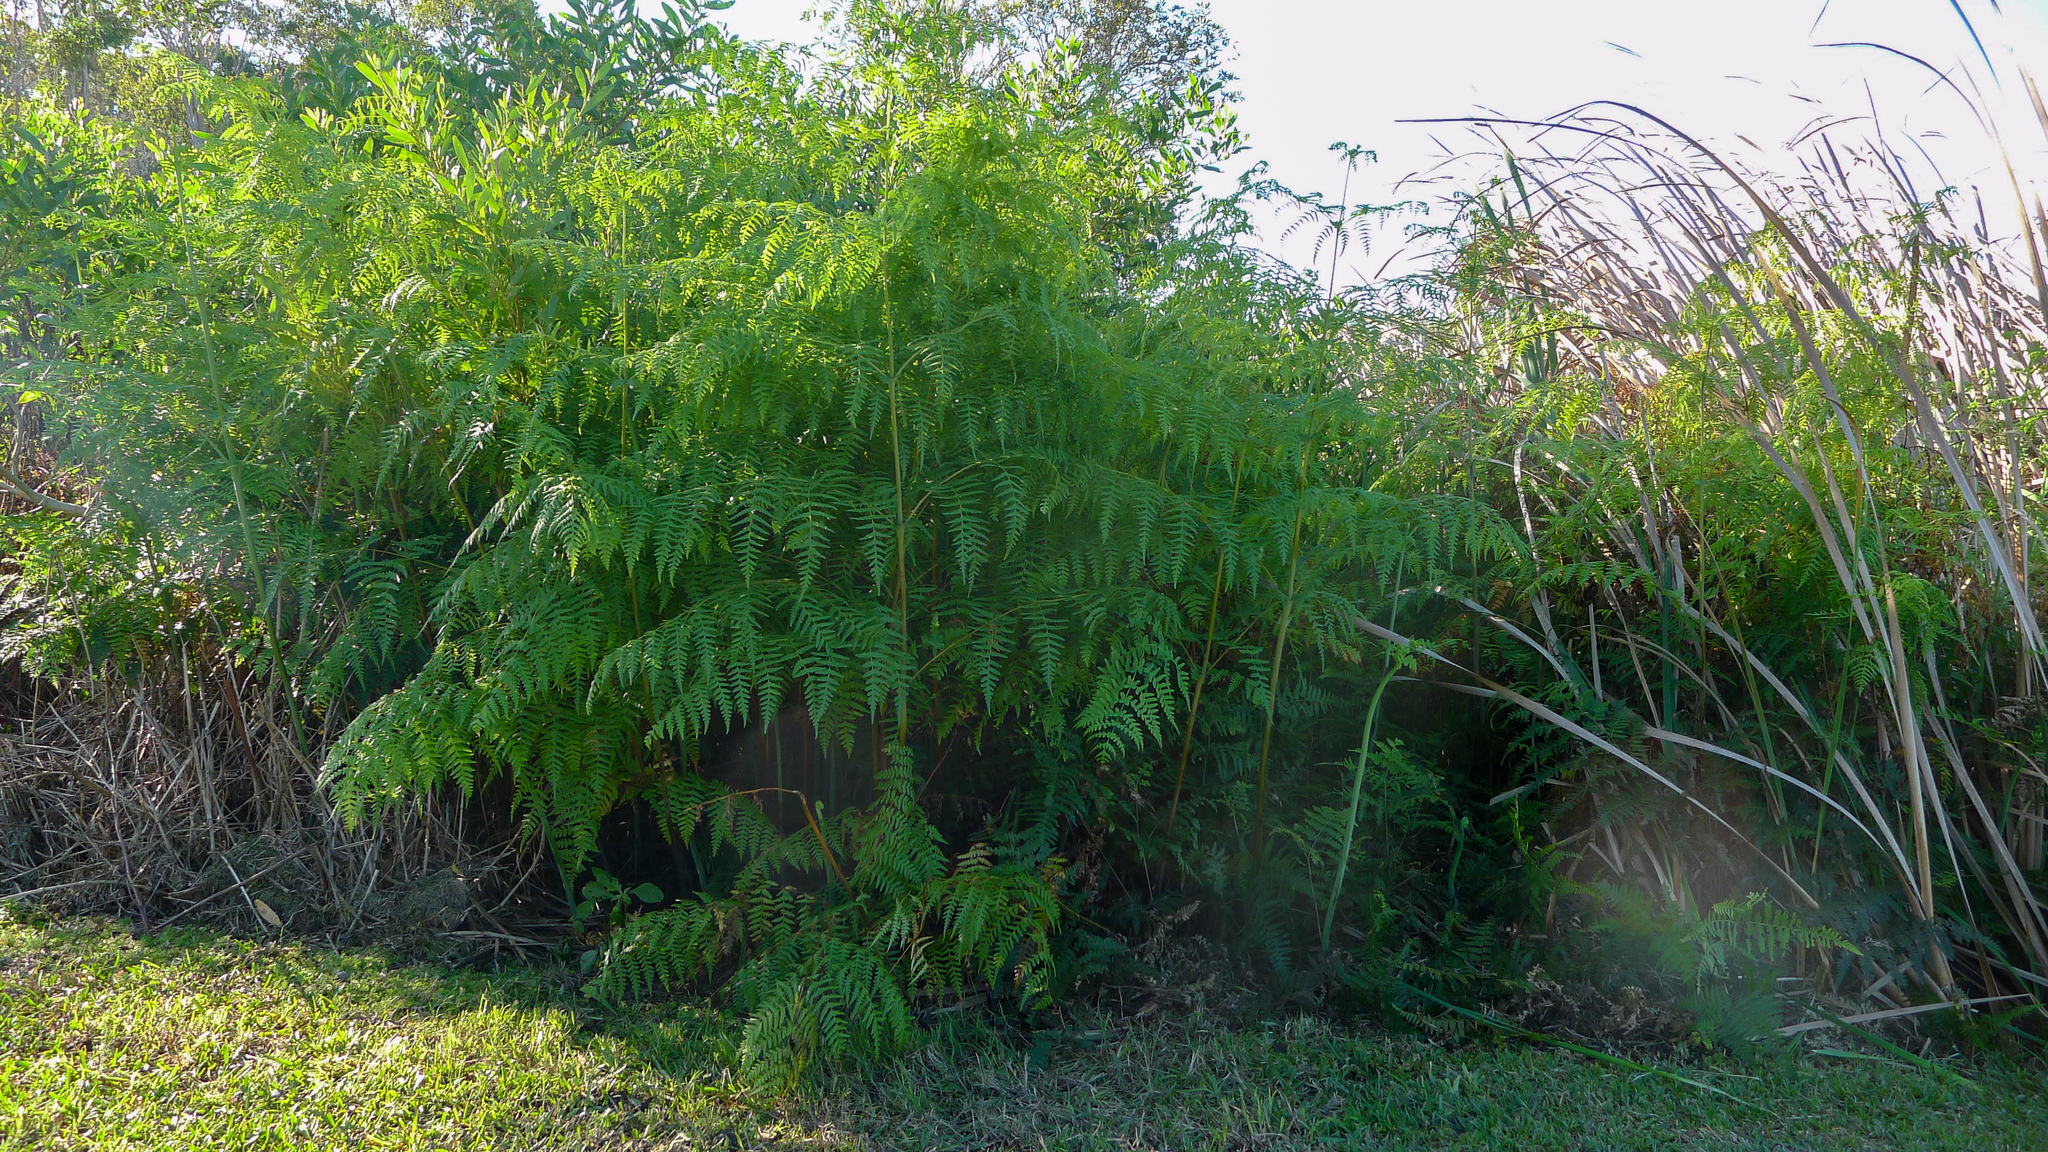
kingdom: Plantae
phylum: Tracheophyta
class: Polypodiopsida
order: Polypodiales
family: Dennstaedtiaceae
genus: Histiopteris
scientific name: Histiopteris incisa
